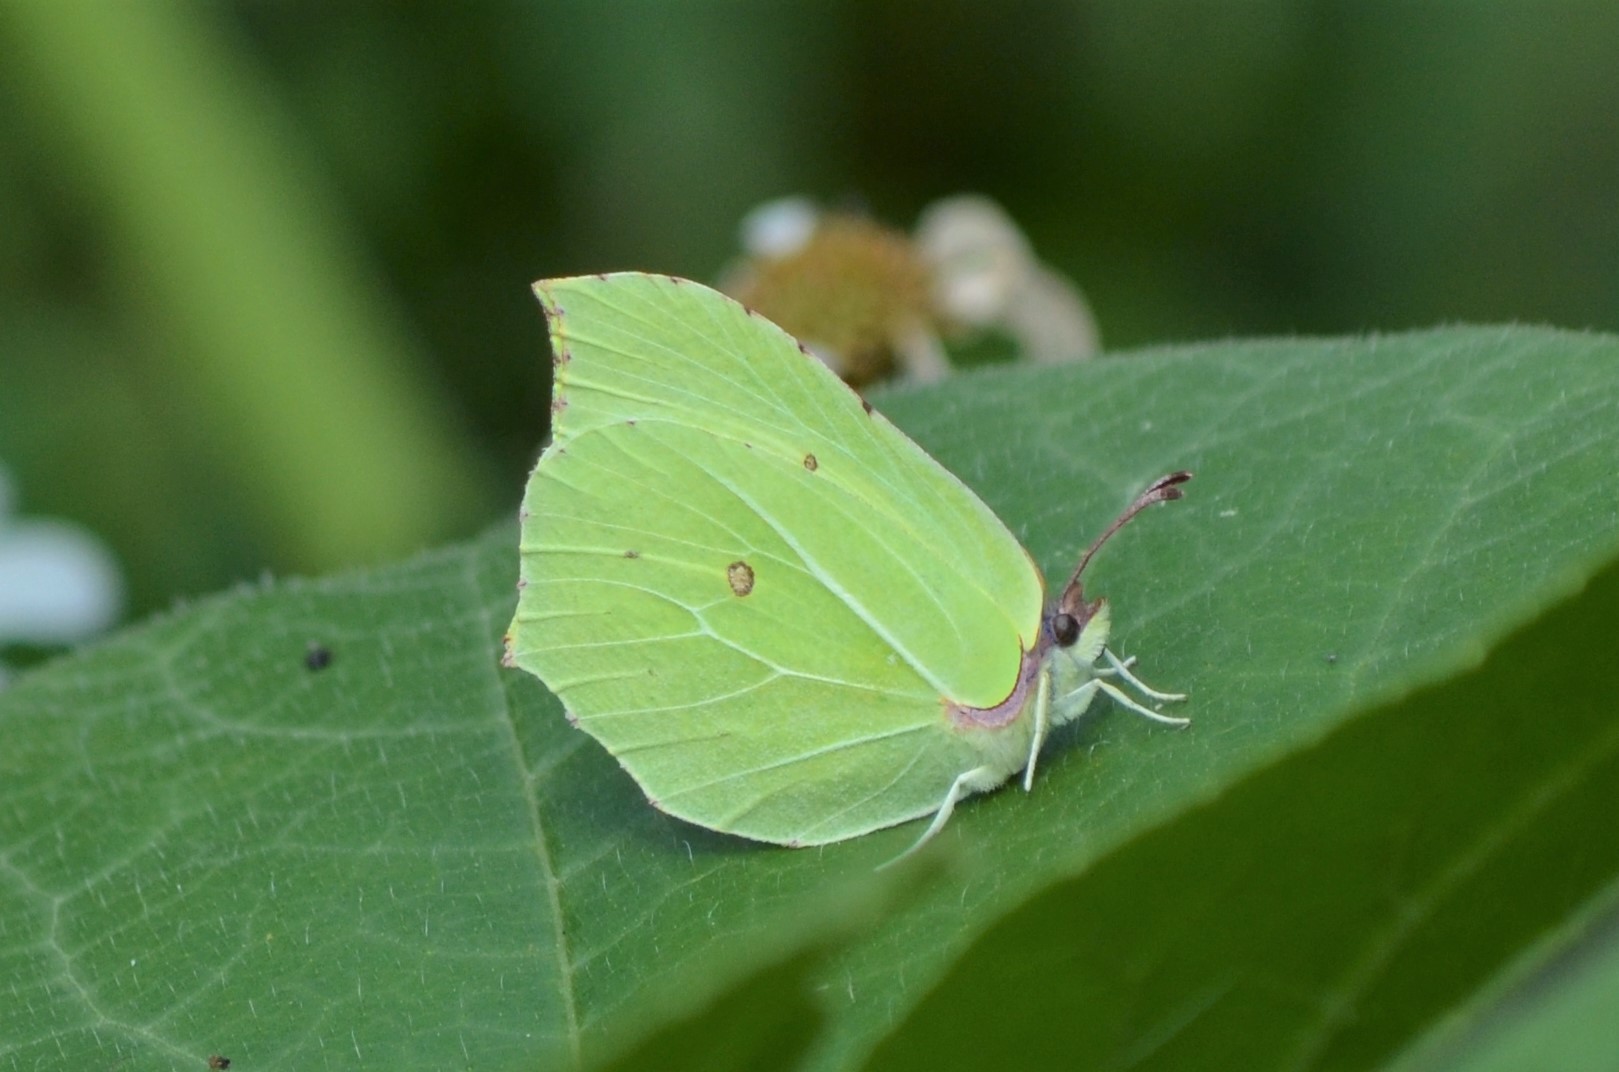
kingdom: Animalia
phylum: Arthropoda
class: Insecta
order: Lepidoptera
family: Pieridae
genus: Gonepteryx
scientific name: Gonepteryx rhamni
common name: Brimstone
